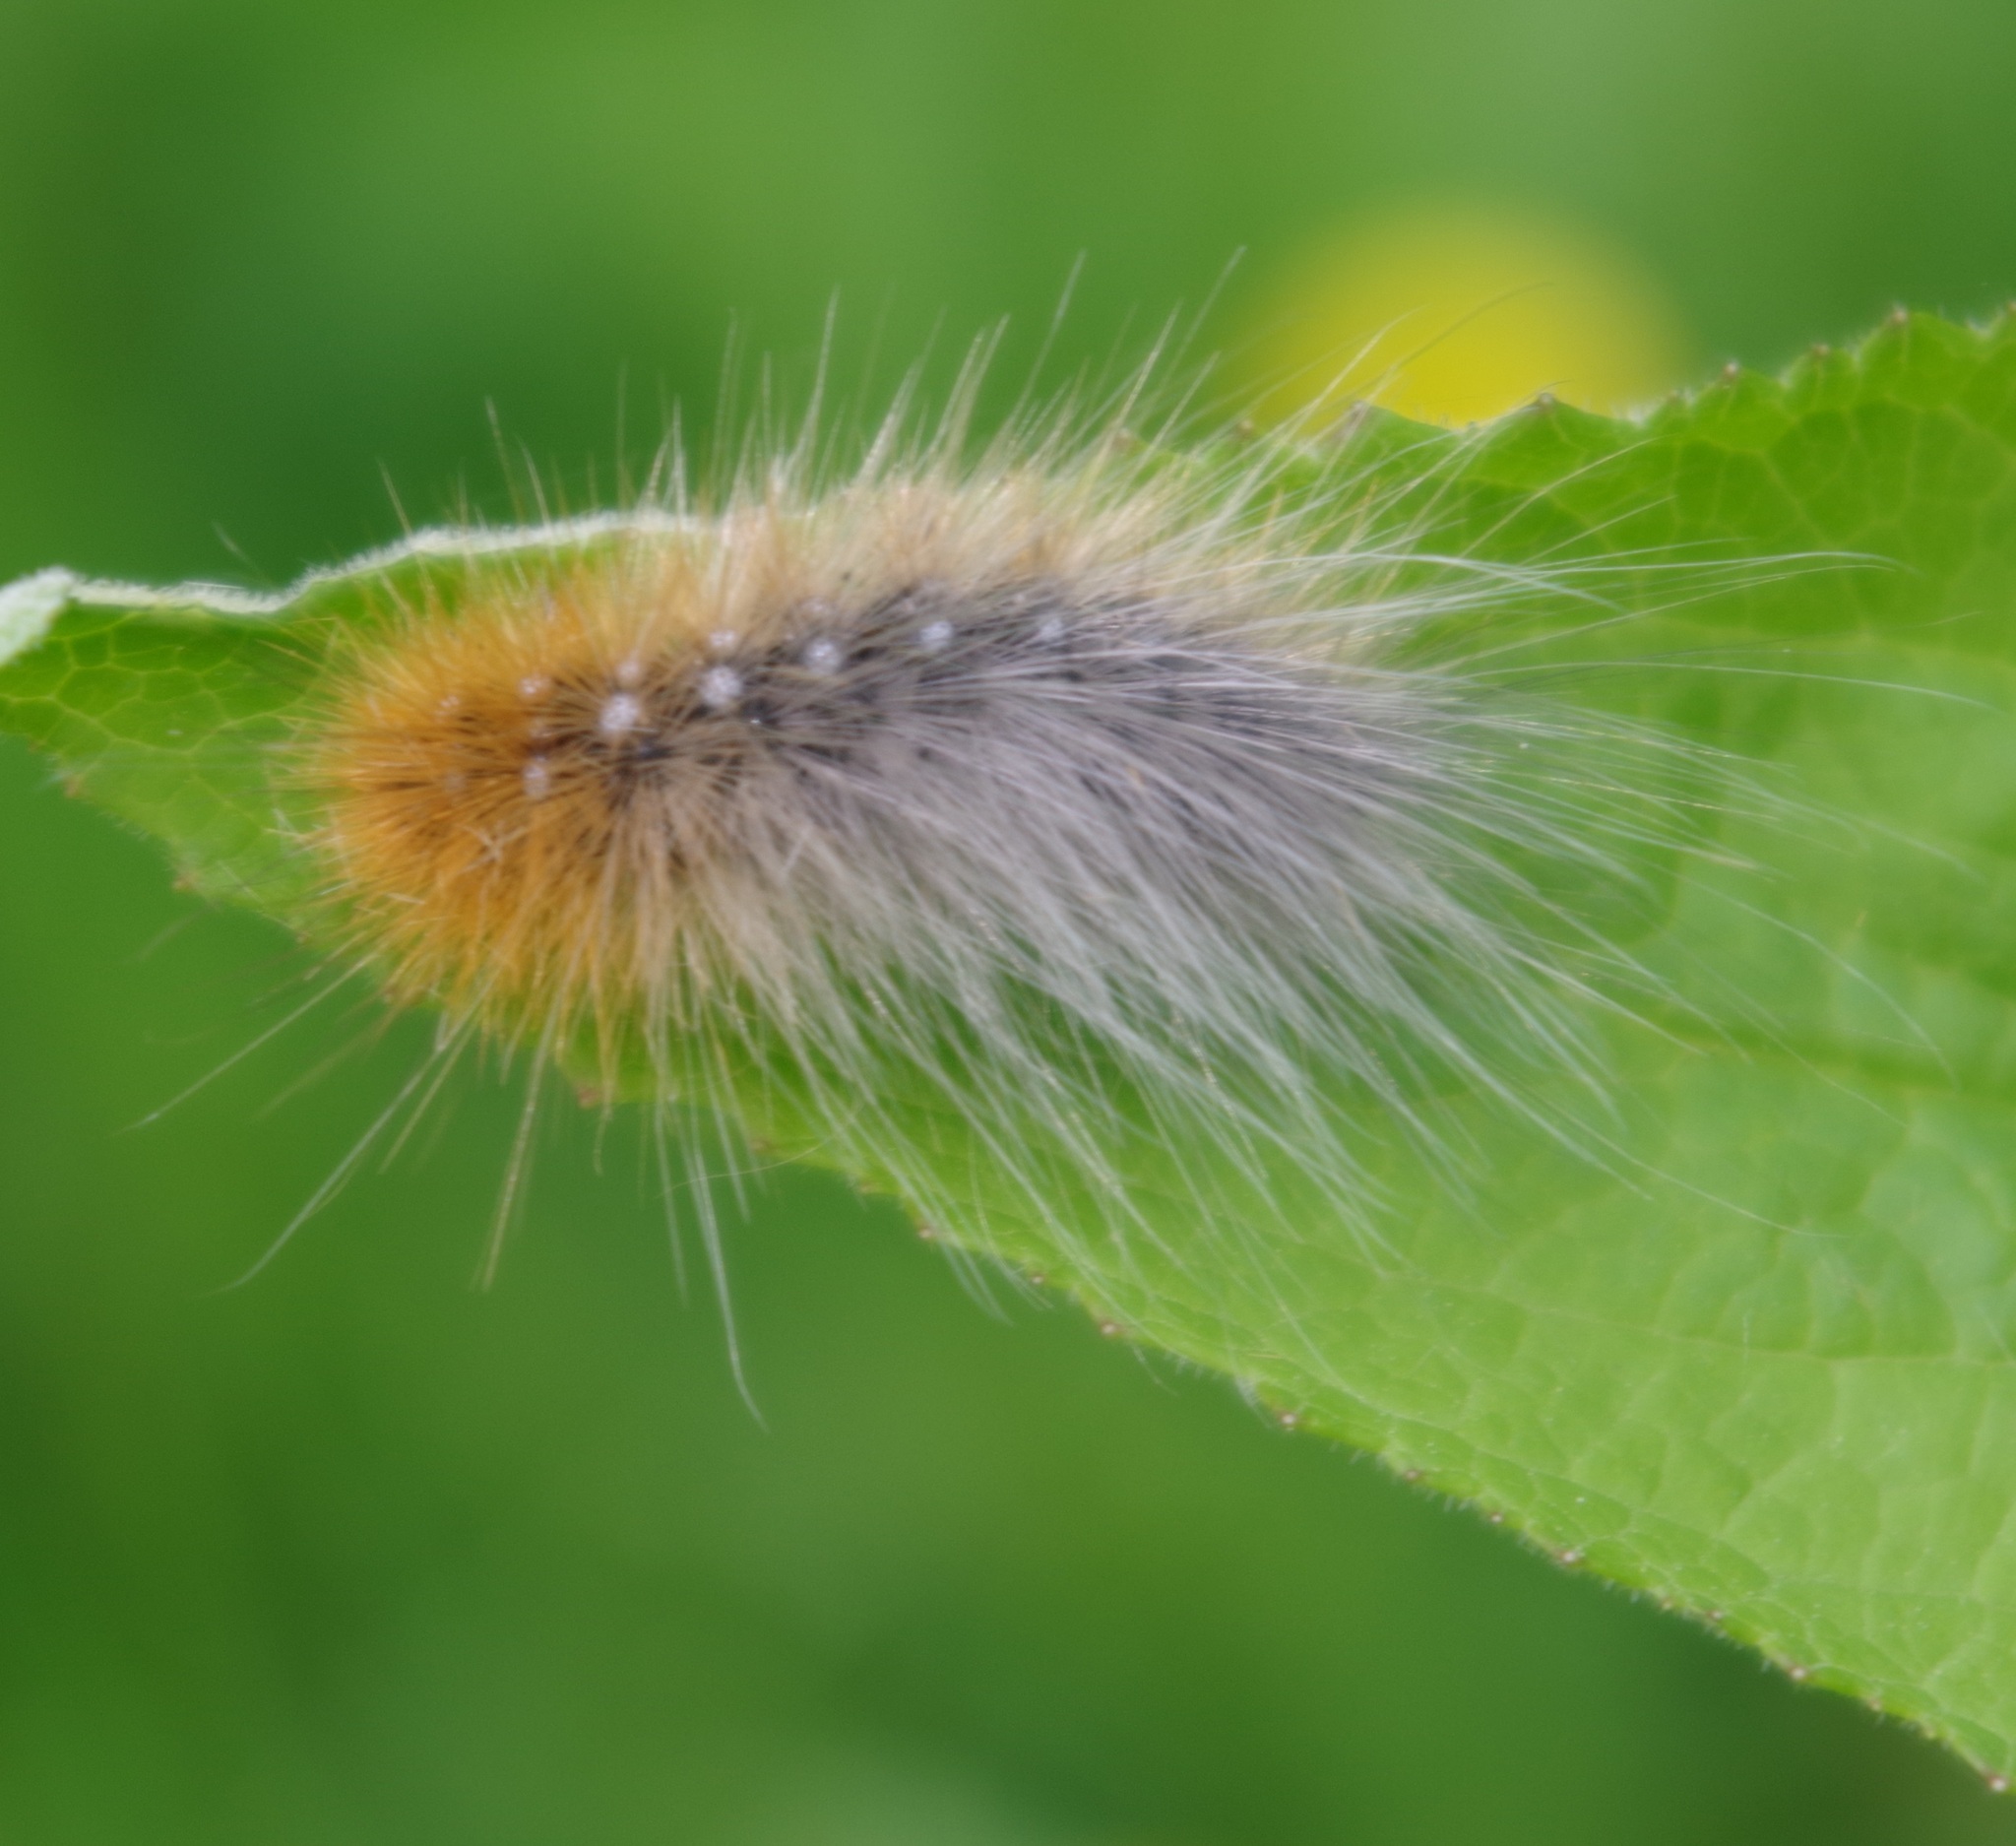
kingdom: Animalia
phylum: Arthropoda
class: Insecta
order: Lepidoptera
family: Erebidae
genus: Arctia
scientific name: Arctia caja
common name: Garden tiger
